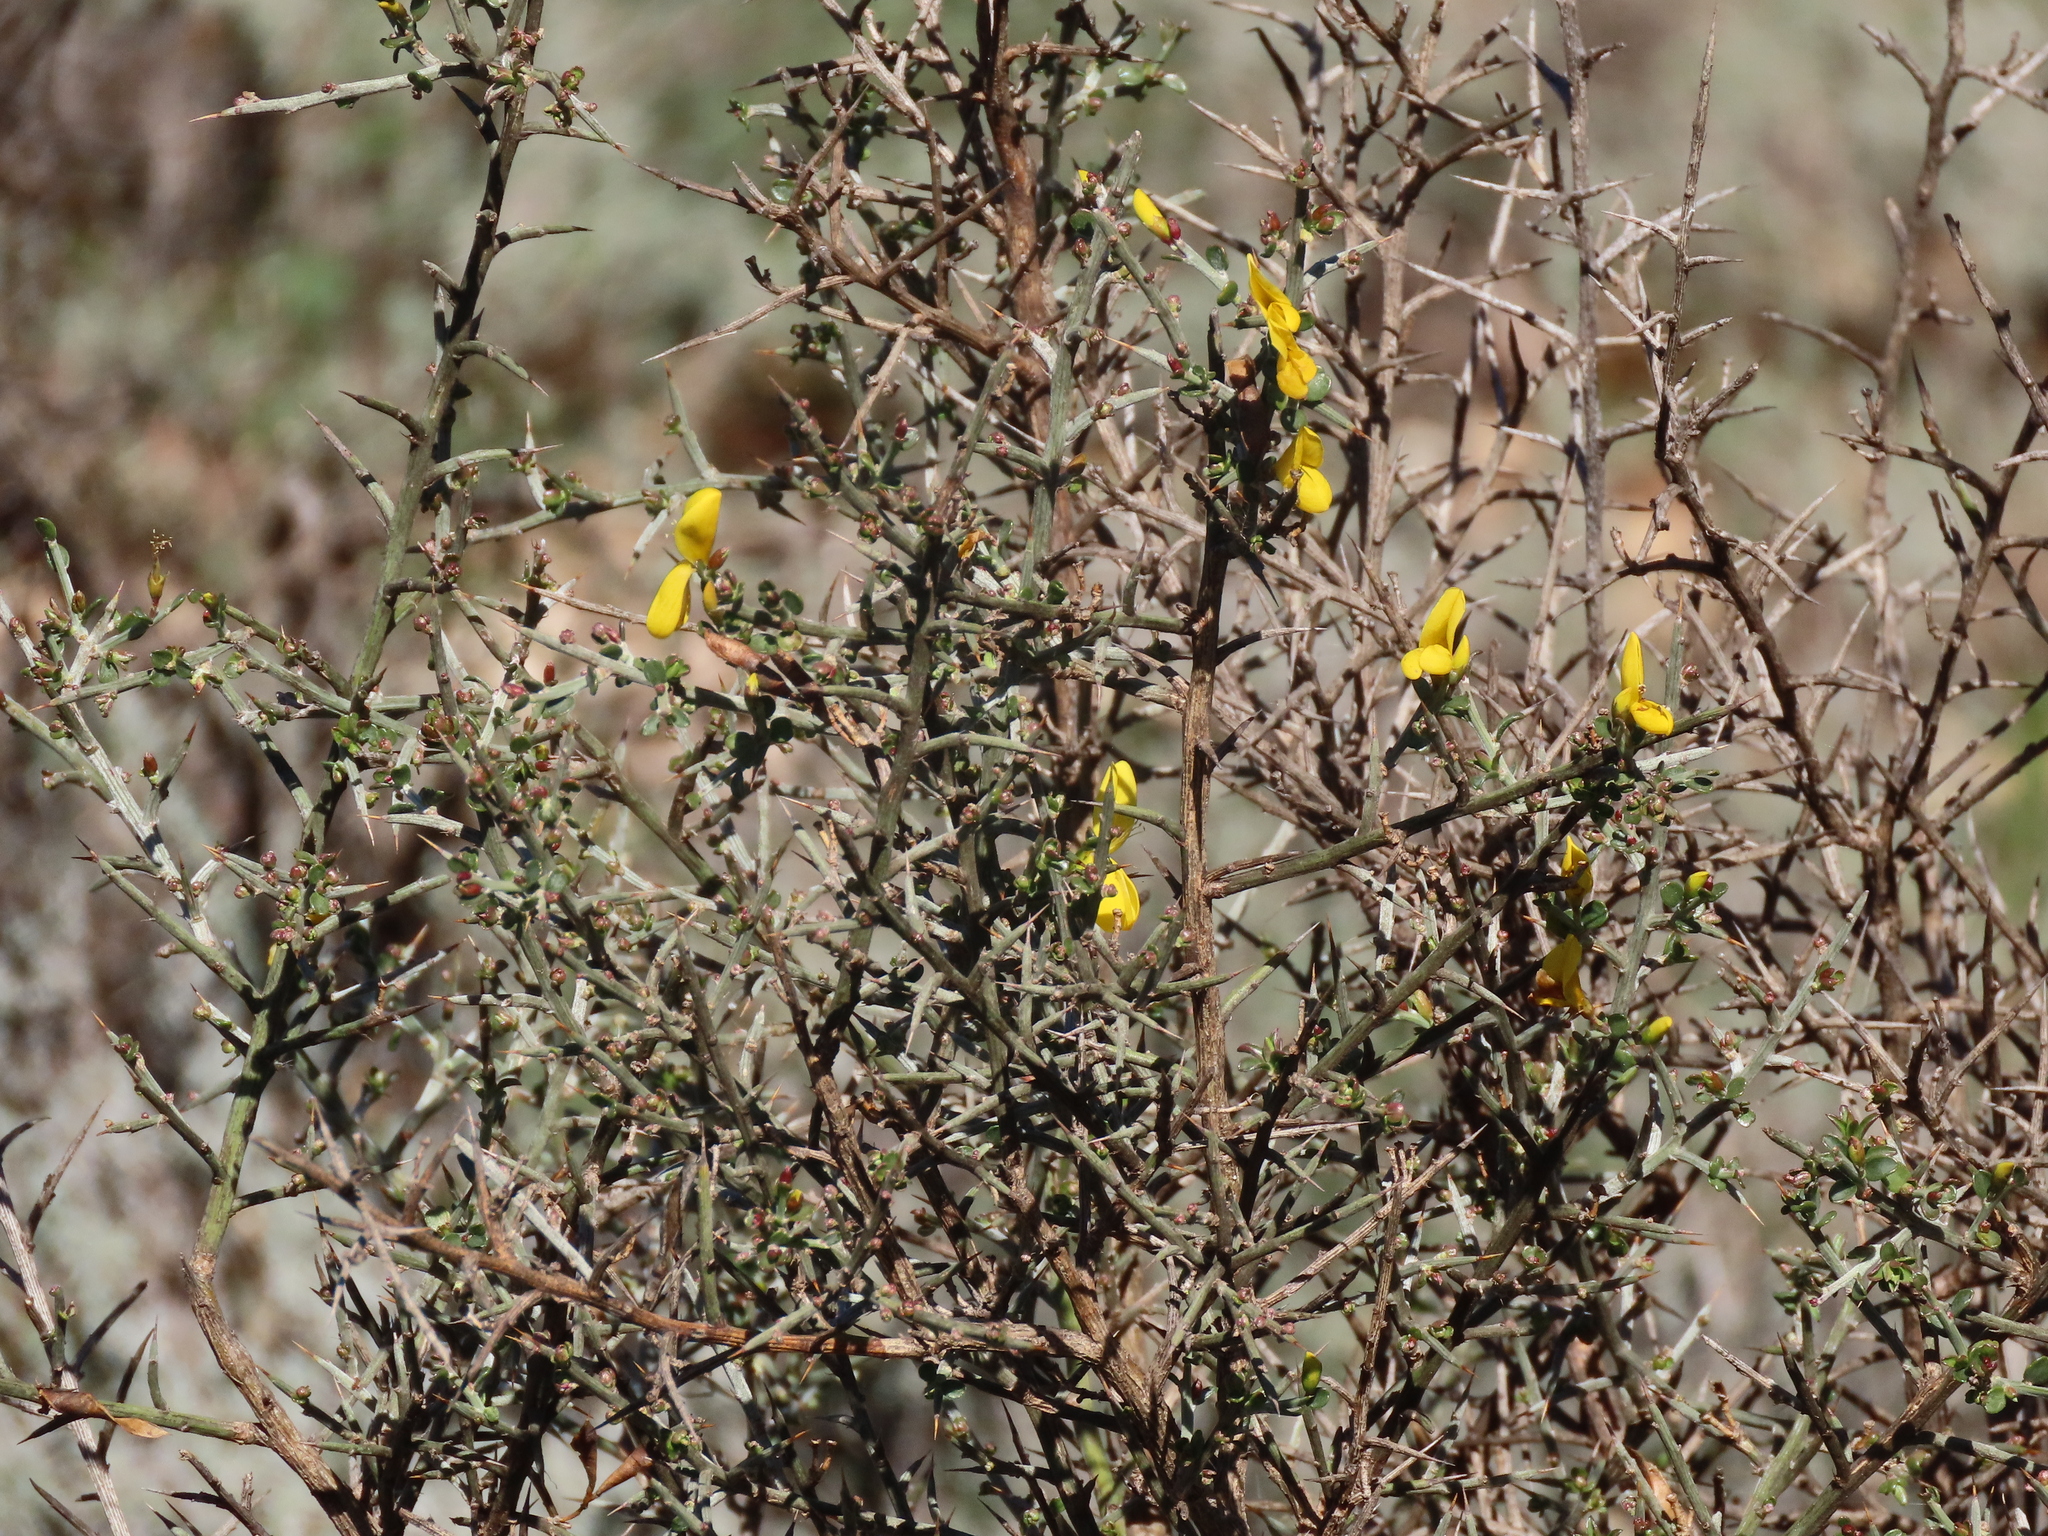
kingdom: Plantae
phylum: Tracheophyta
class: Magnoliopsida
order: Fabales
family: Fabaceae
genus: Genista
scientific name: Genista scorpius
